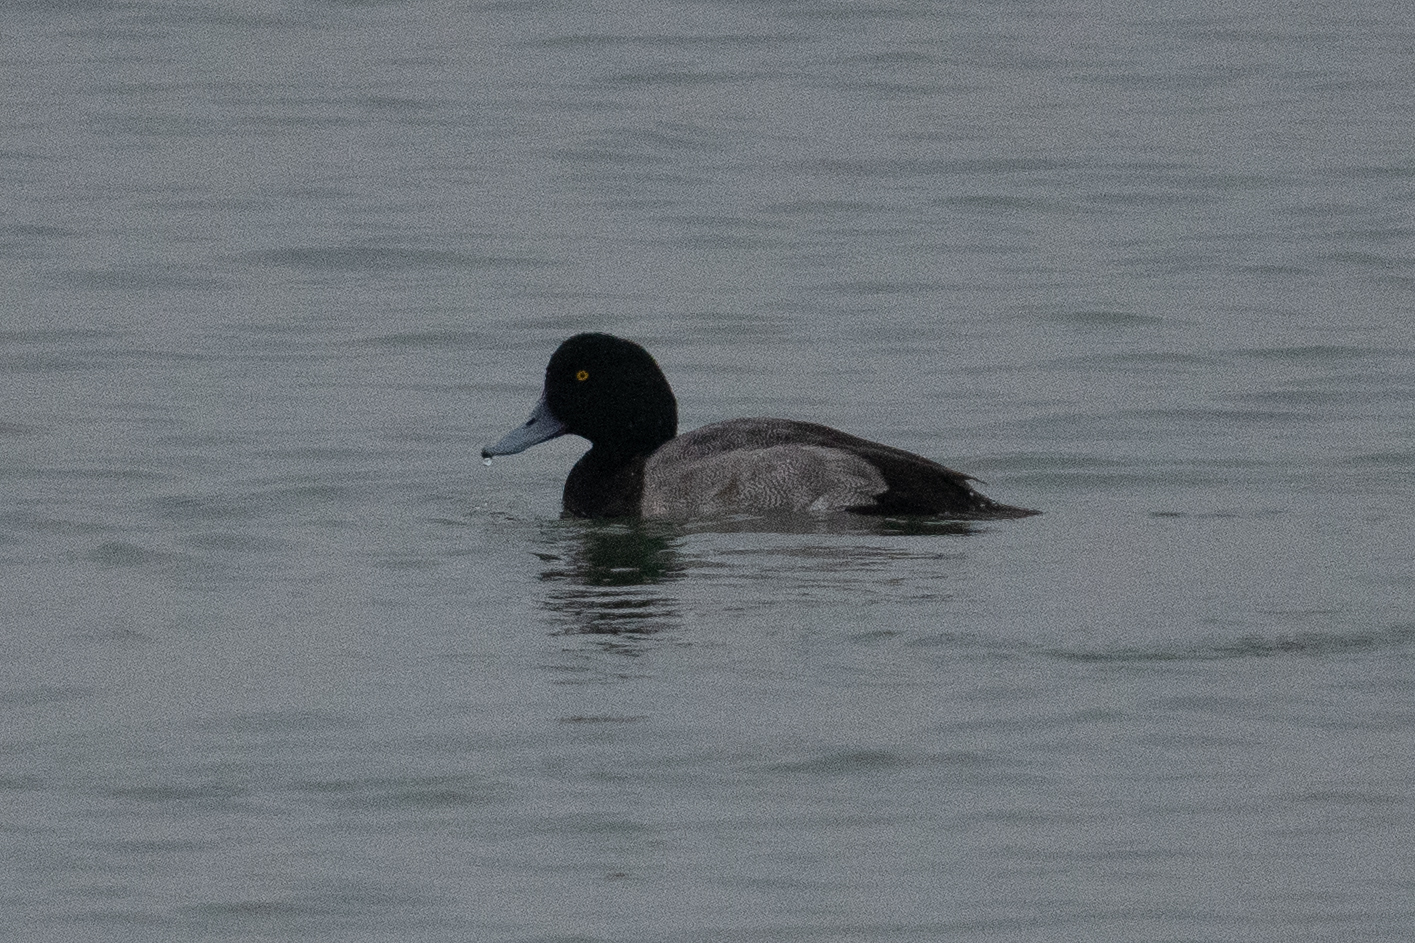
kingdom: Animalia
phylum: Chordata
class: Aves
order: Anseriformes
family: Anatidae
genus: Aythya
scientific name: Aythya marila
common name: Greater scaup
